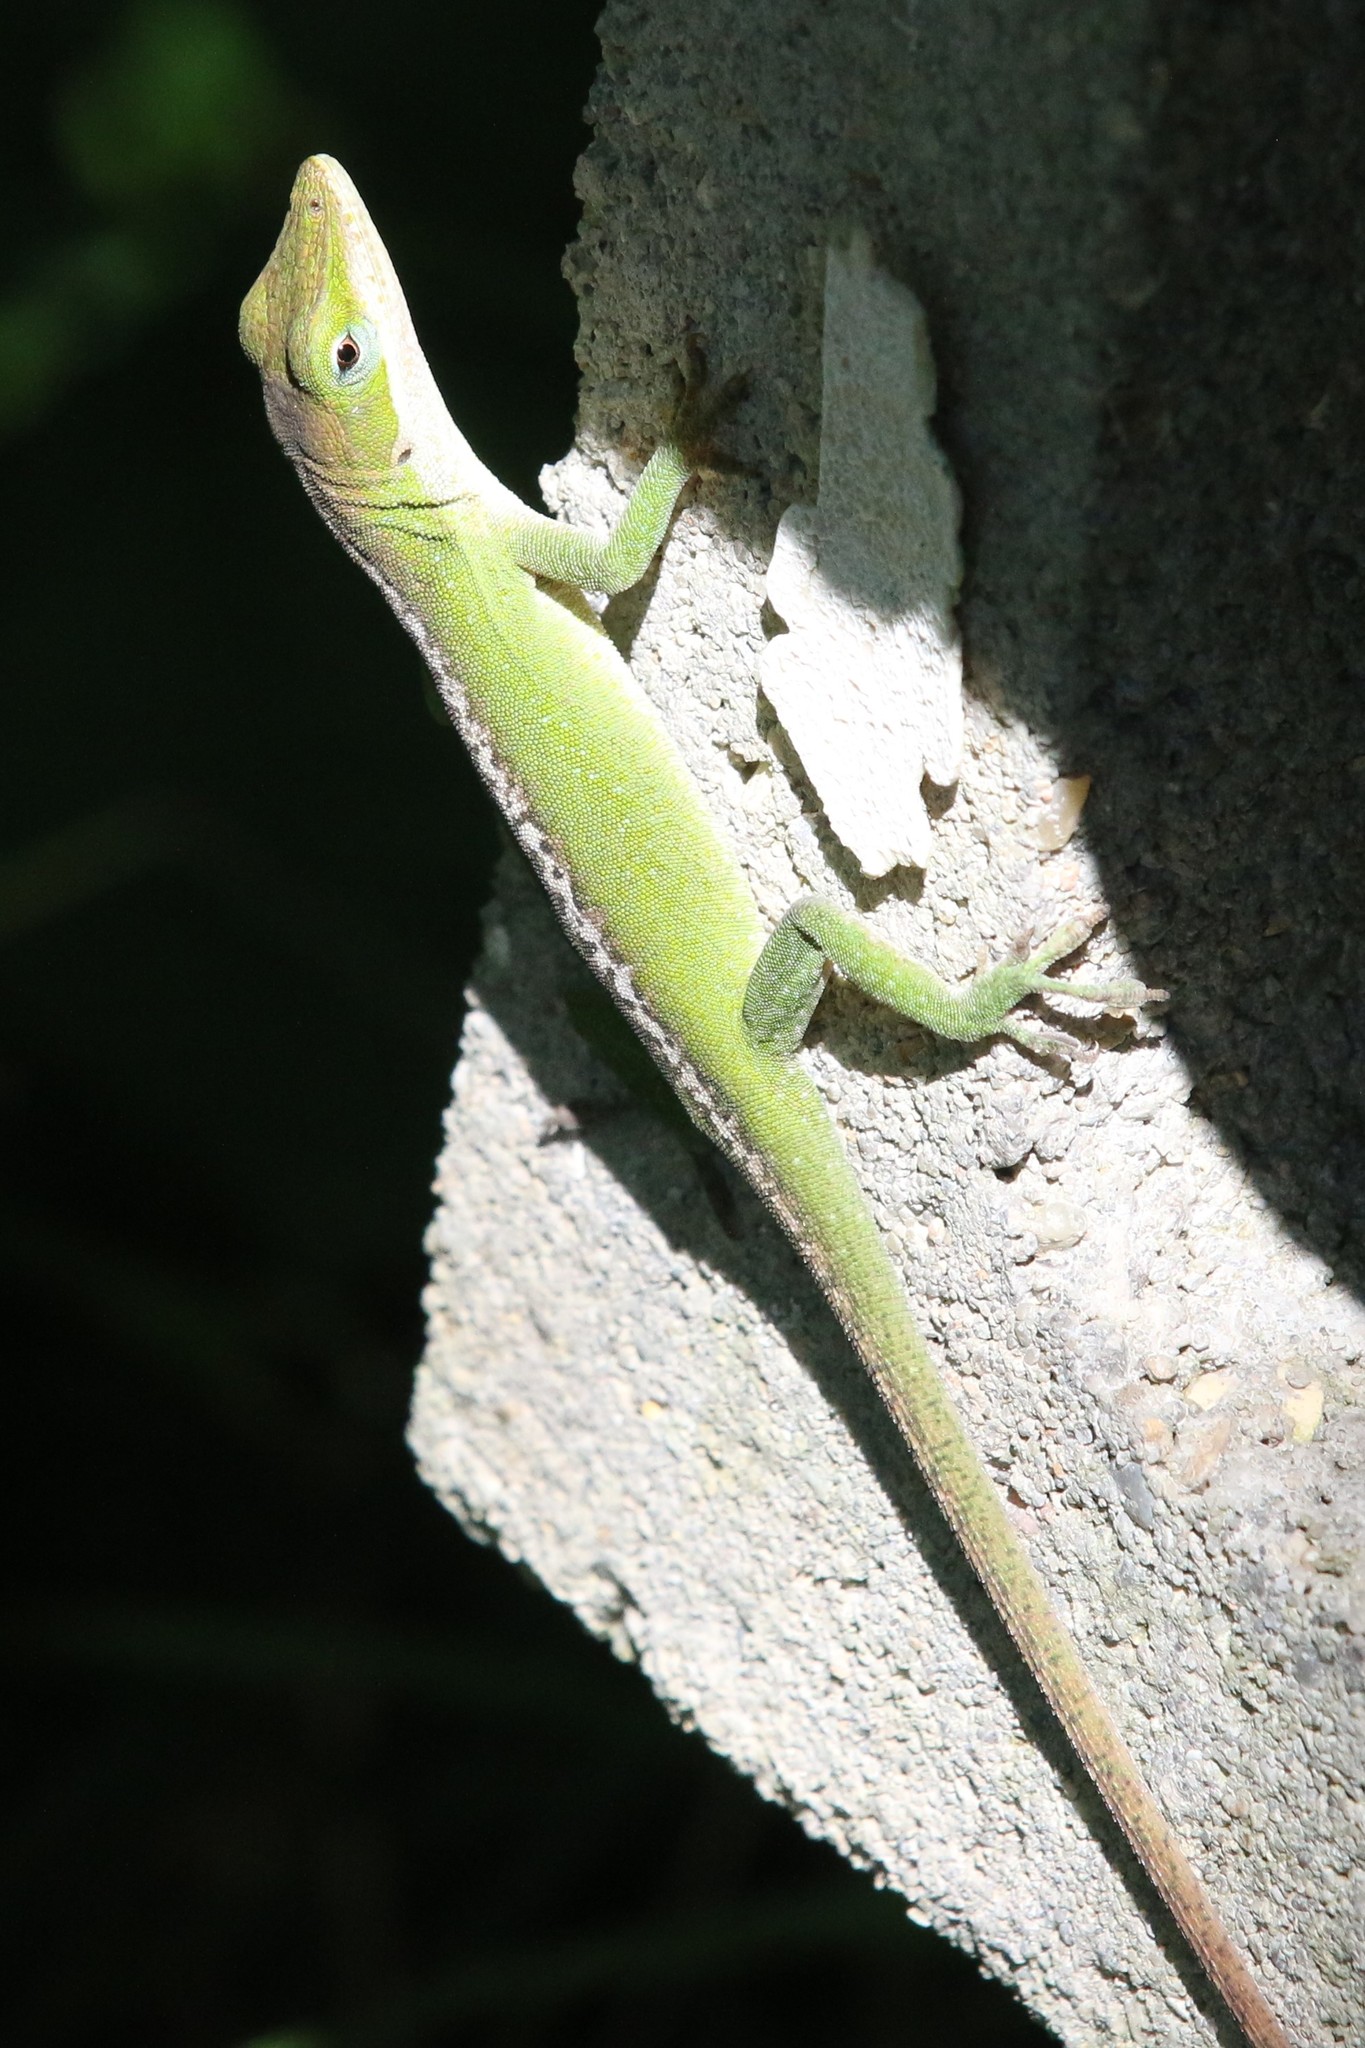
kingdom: Animalia
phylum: Chordata
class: Squamata
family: Dactyloidae
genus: Anolis
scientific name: Anolis carolinensis
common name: Green anole
